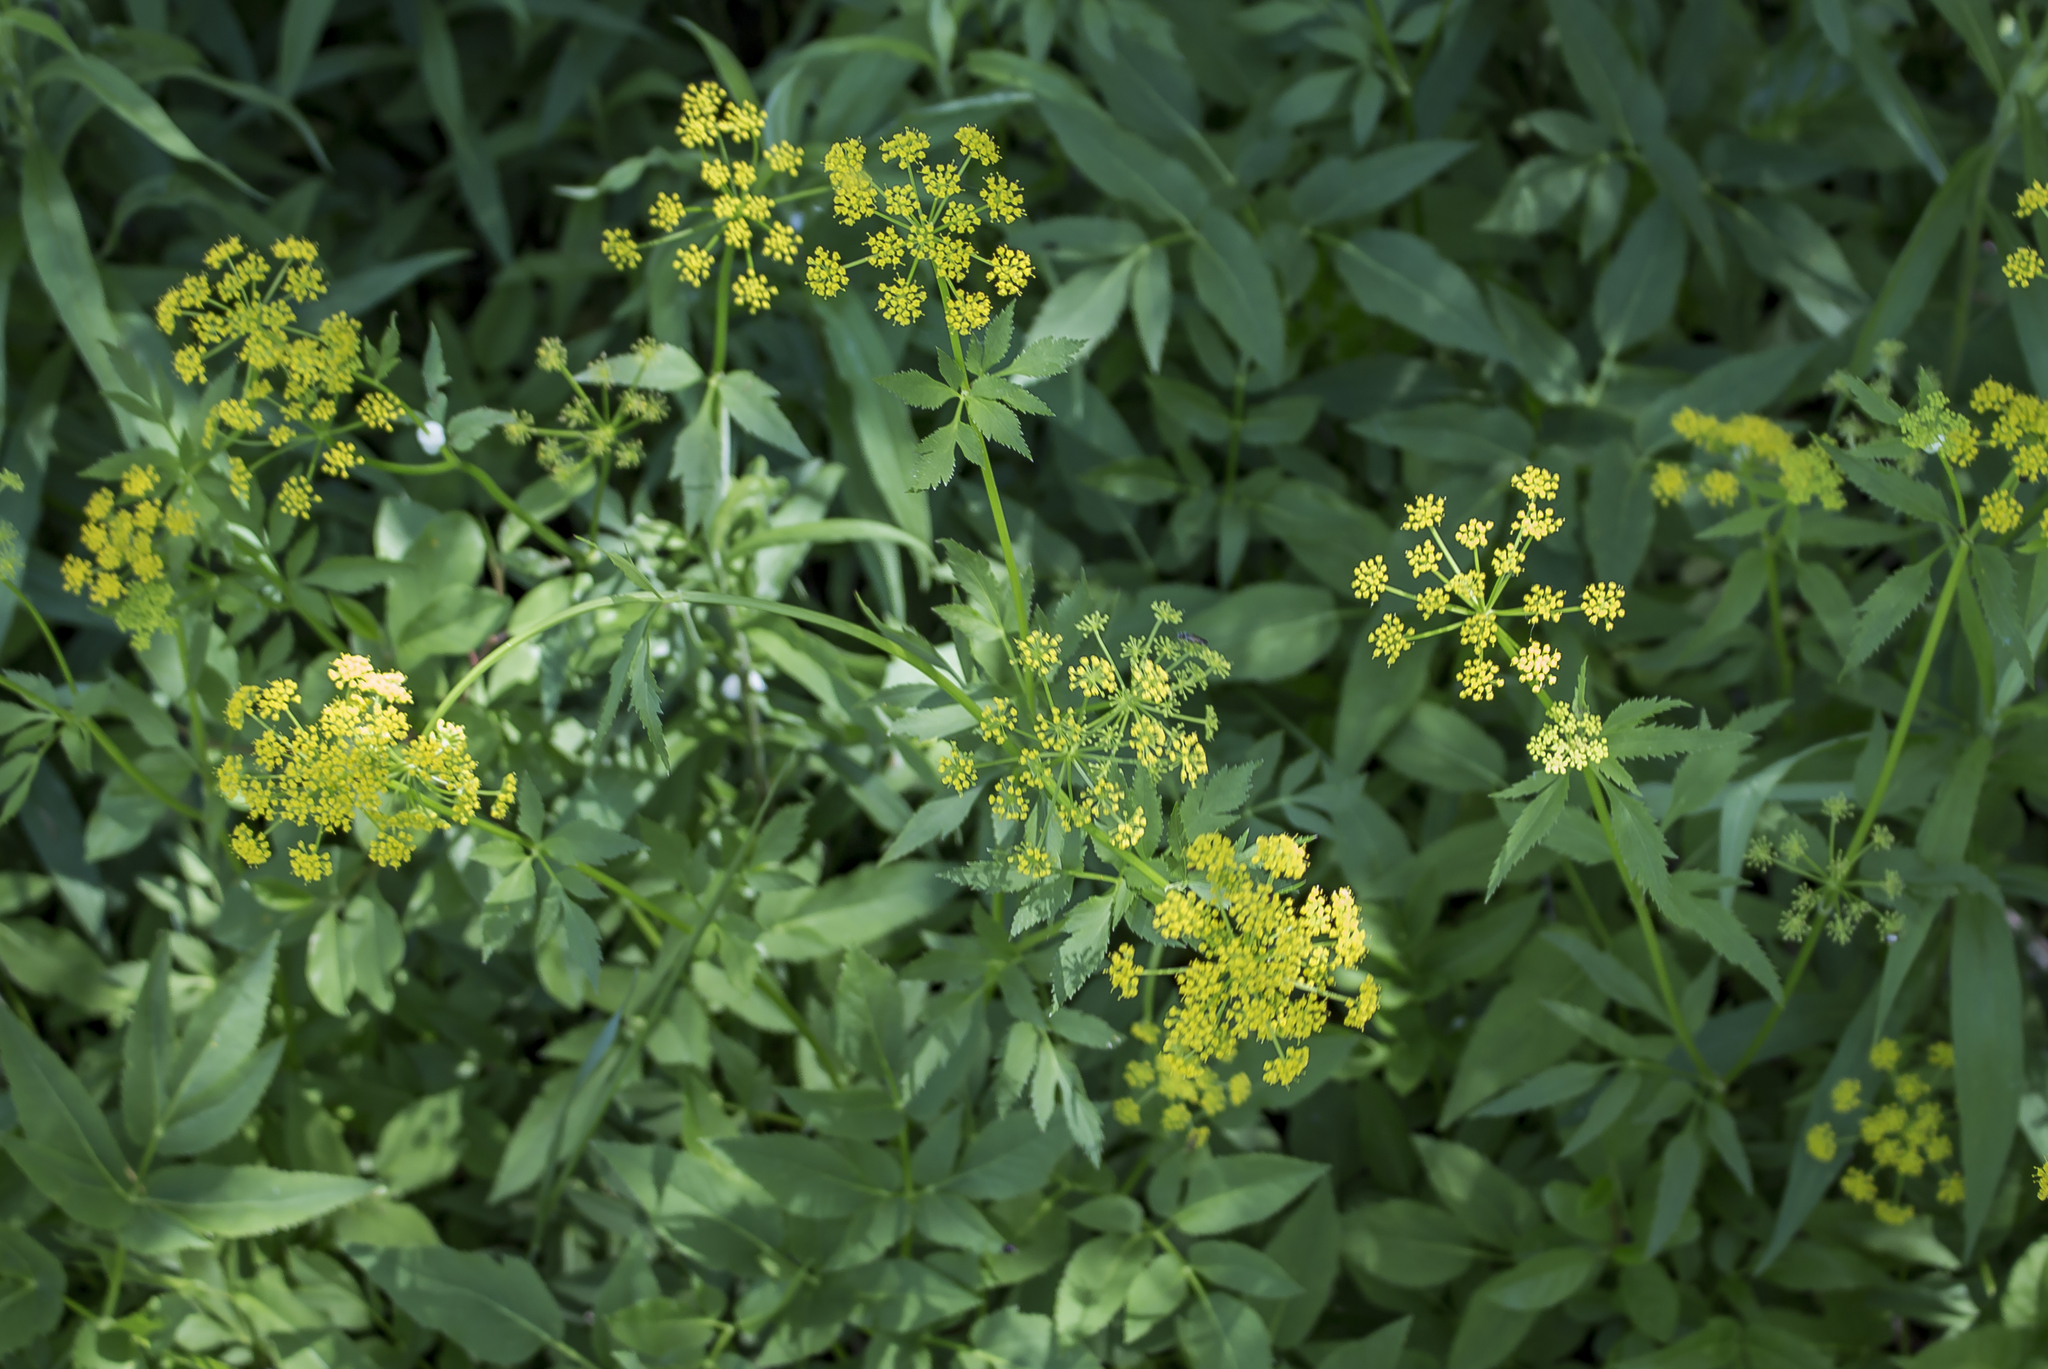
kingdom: Plantae
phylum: Tracheophyta
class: Magnoliopsida
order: Apiales
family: Apiaceae
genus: Zizia
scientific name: Zizia aurea
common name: Golden alexanders
